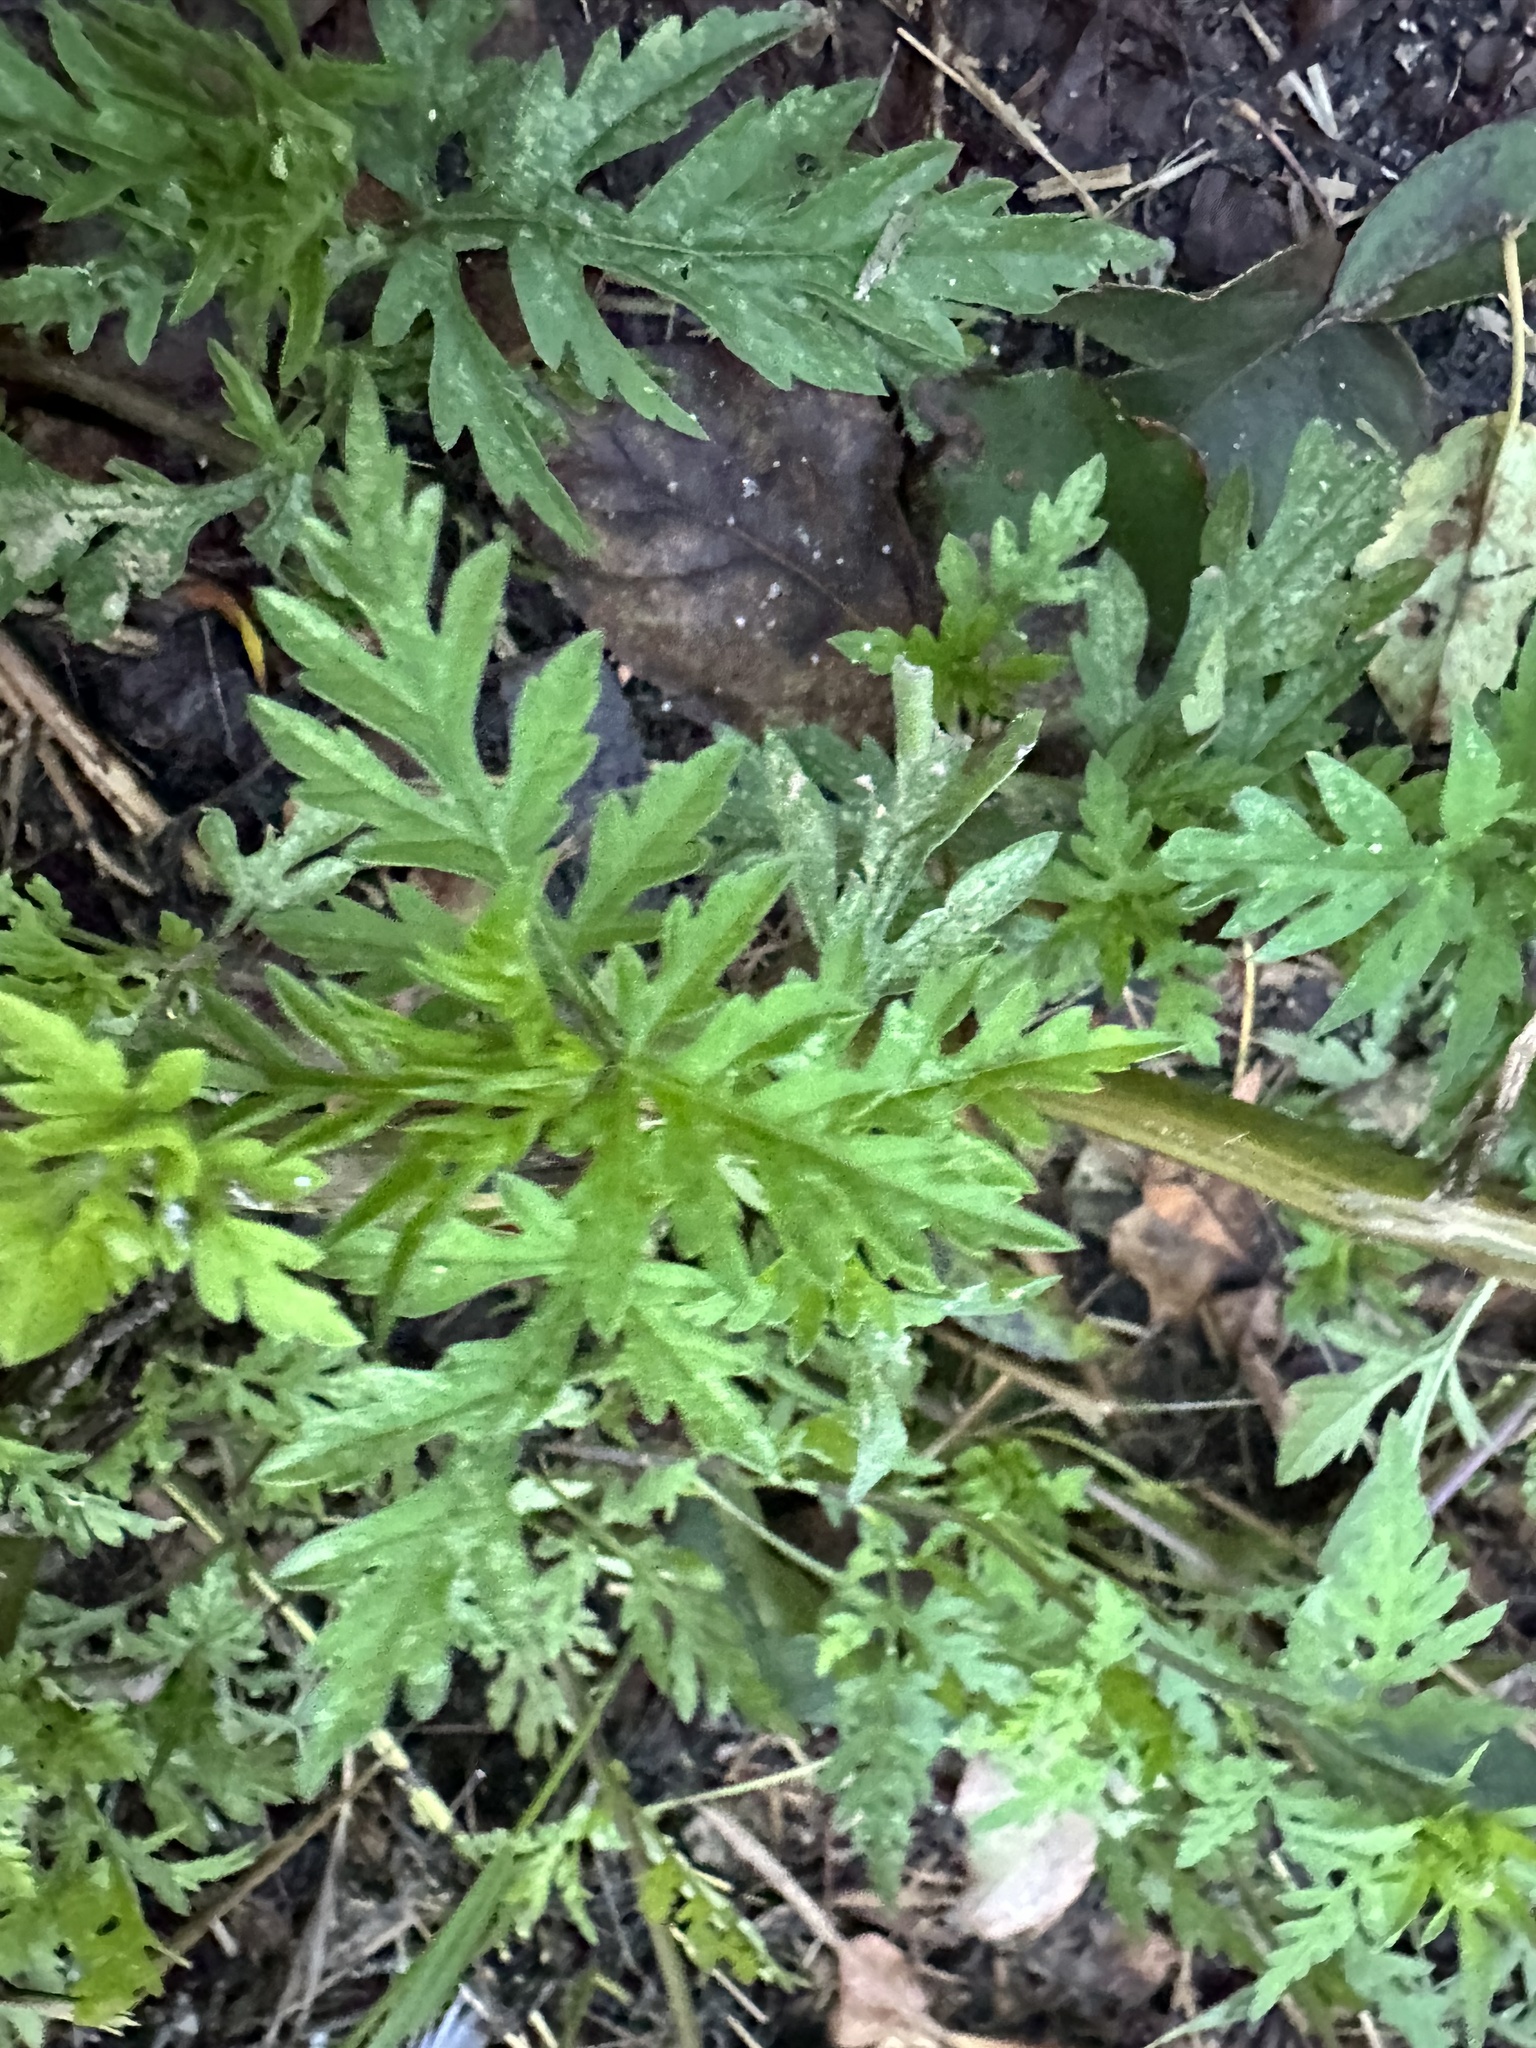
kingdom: Plantae
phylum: Tracheophyta
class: Magnoliopsida
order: Asterales
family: Asteraceae
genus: Ambrosia
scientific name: Ambrosia artemisiifolia
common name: Annual ragweed
